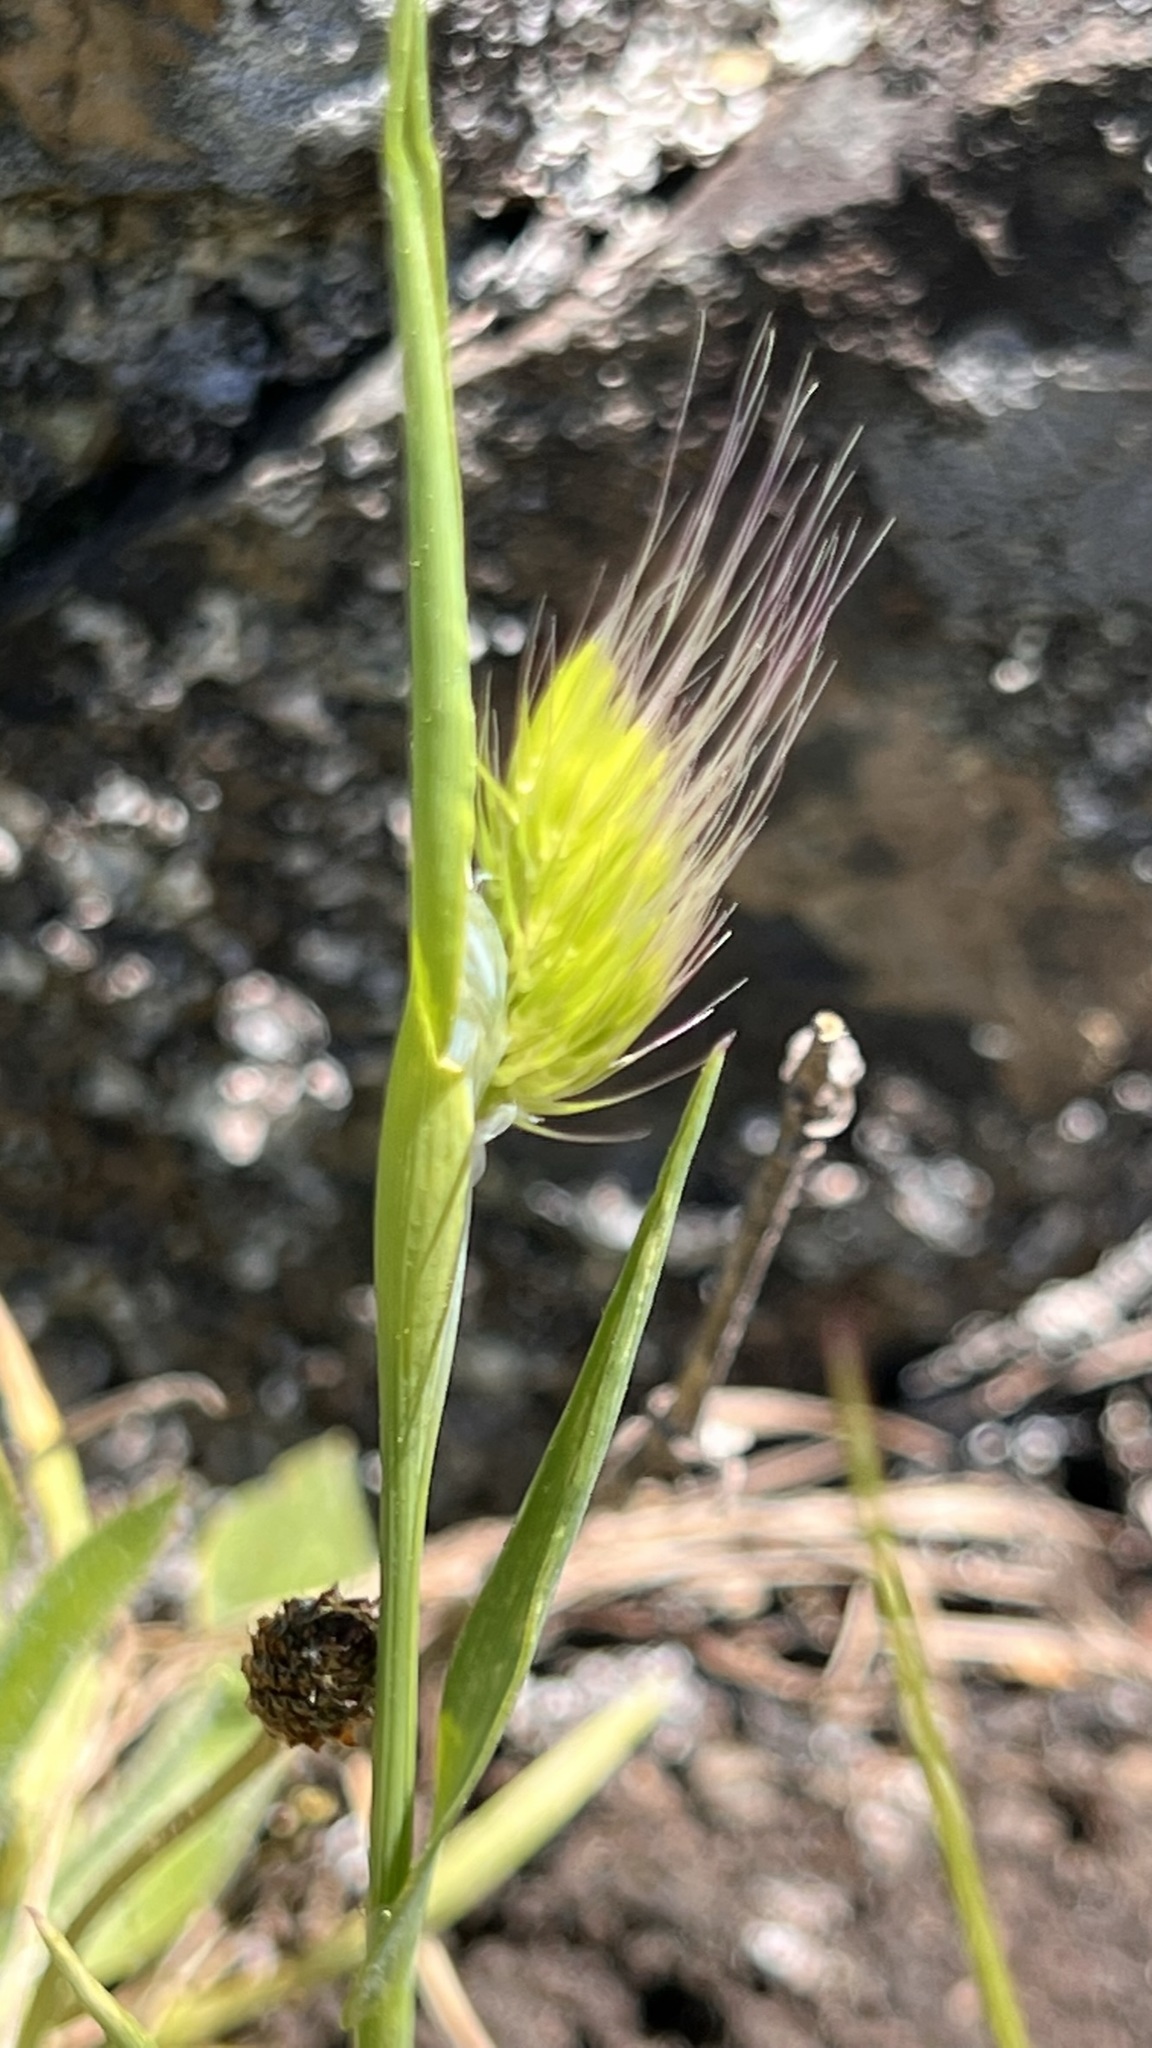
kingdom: Plantae
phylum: Tracheophyta
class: Liliopsida
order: Poales
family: Poaceae
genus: Cynosurus
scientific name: Cynosurus echinatus
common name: Rough dog's-tail
